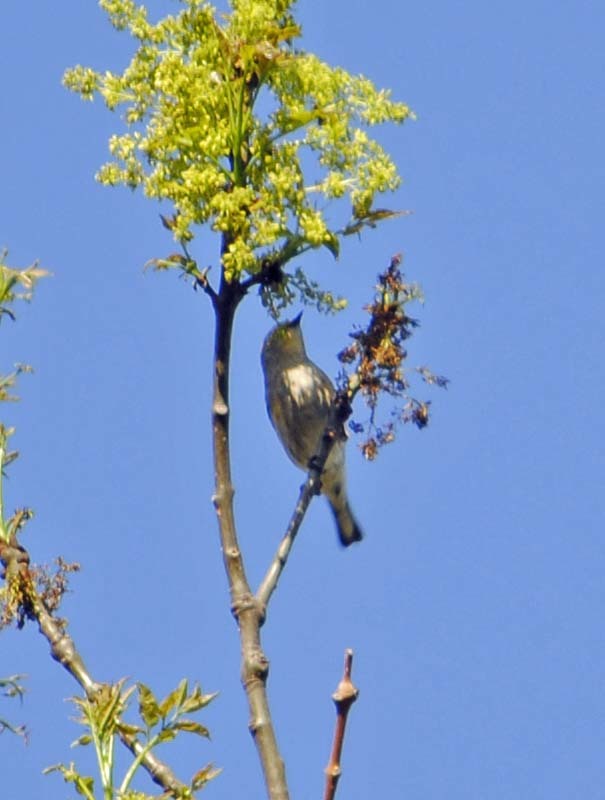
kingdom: Animalia
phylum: Chordata
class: Aves
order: Passeriformes
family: Parulidae
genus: Setophaga
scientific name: Setophaga coronata
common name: Myrtle warbler
